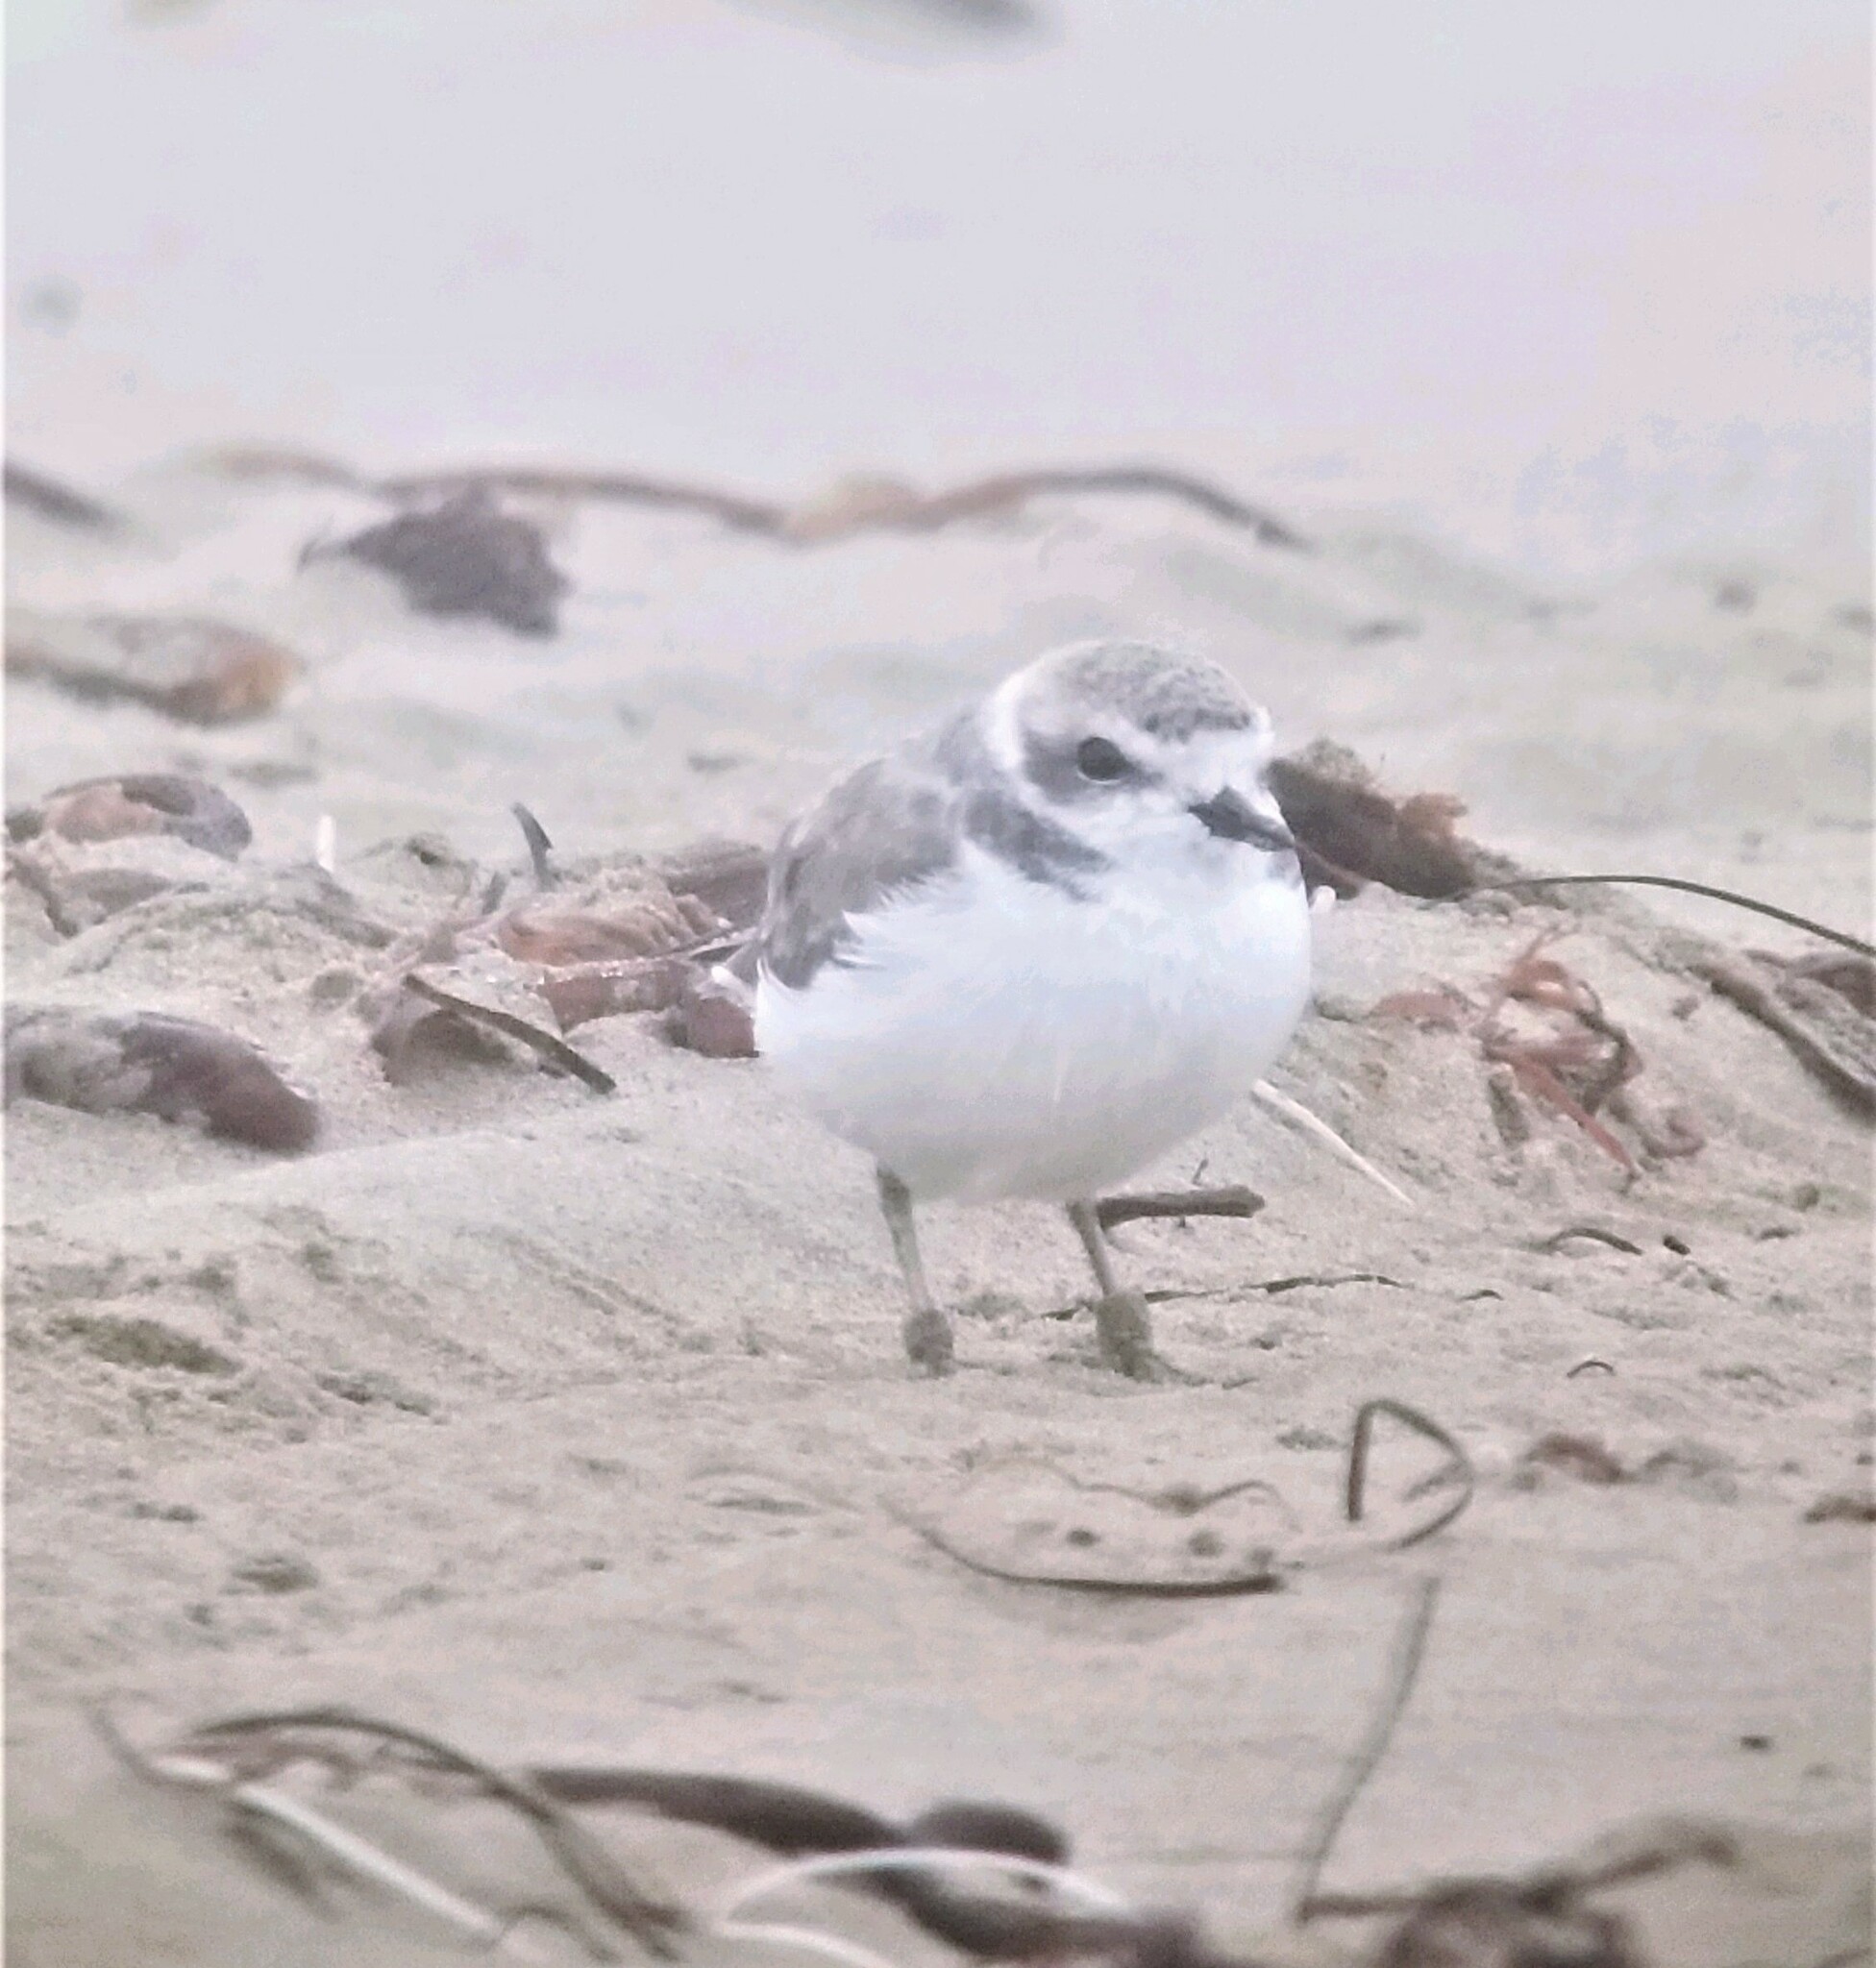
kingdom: Animalia
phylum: Chordata
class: Aves
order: Charadriiformes
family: Charadriidae
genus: Anarhynchus
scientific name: Anarhynchus
